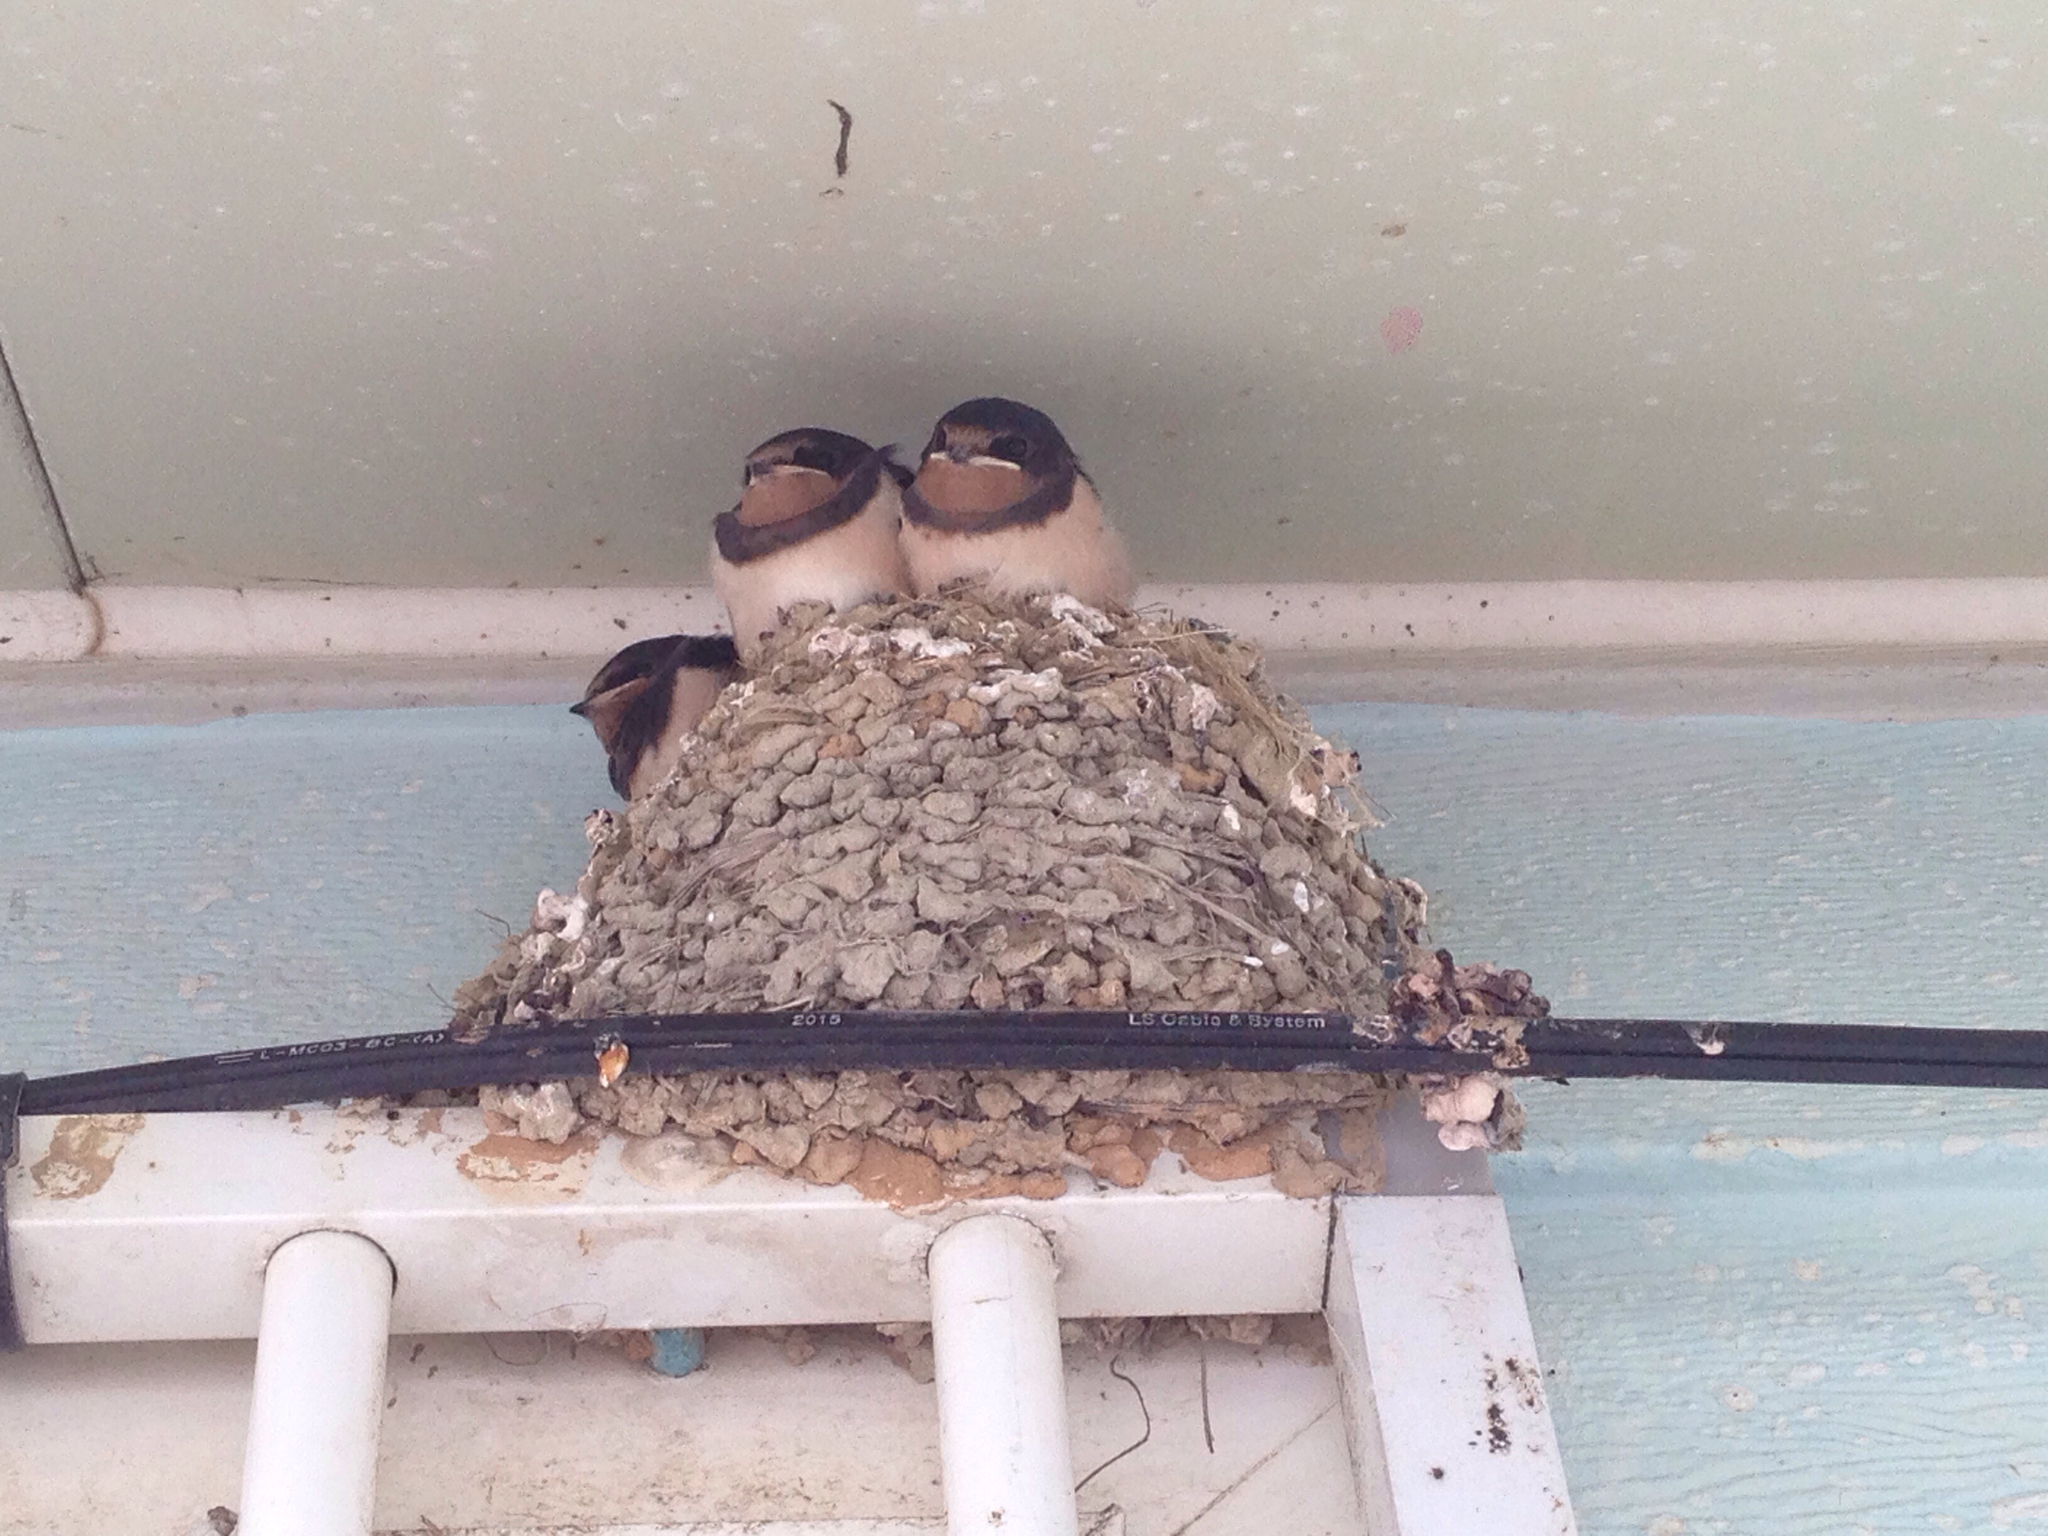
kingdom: Animalia
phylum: Chordata
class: Aves
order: Passeriformes
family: Hirundinidae
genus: Hirundo
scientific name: Hirundo rustica
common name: Barn swallow
